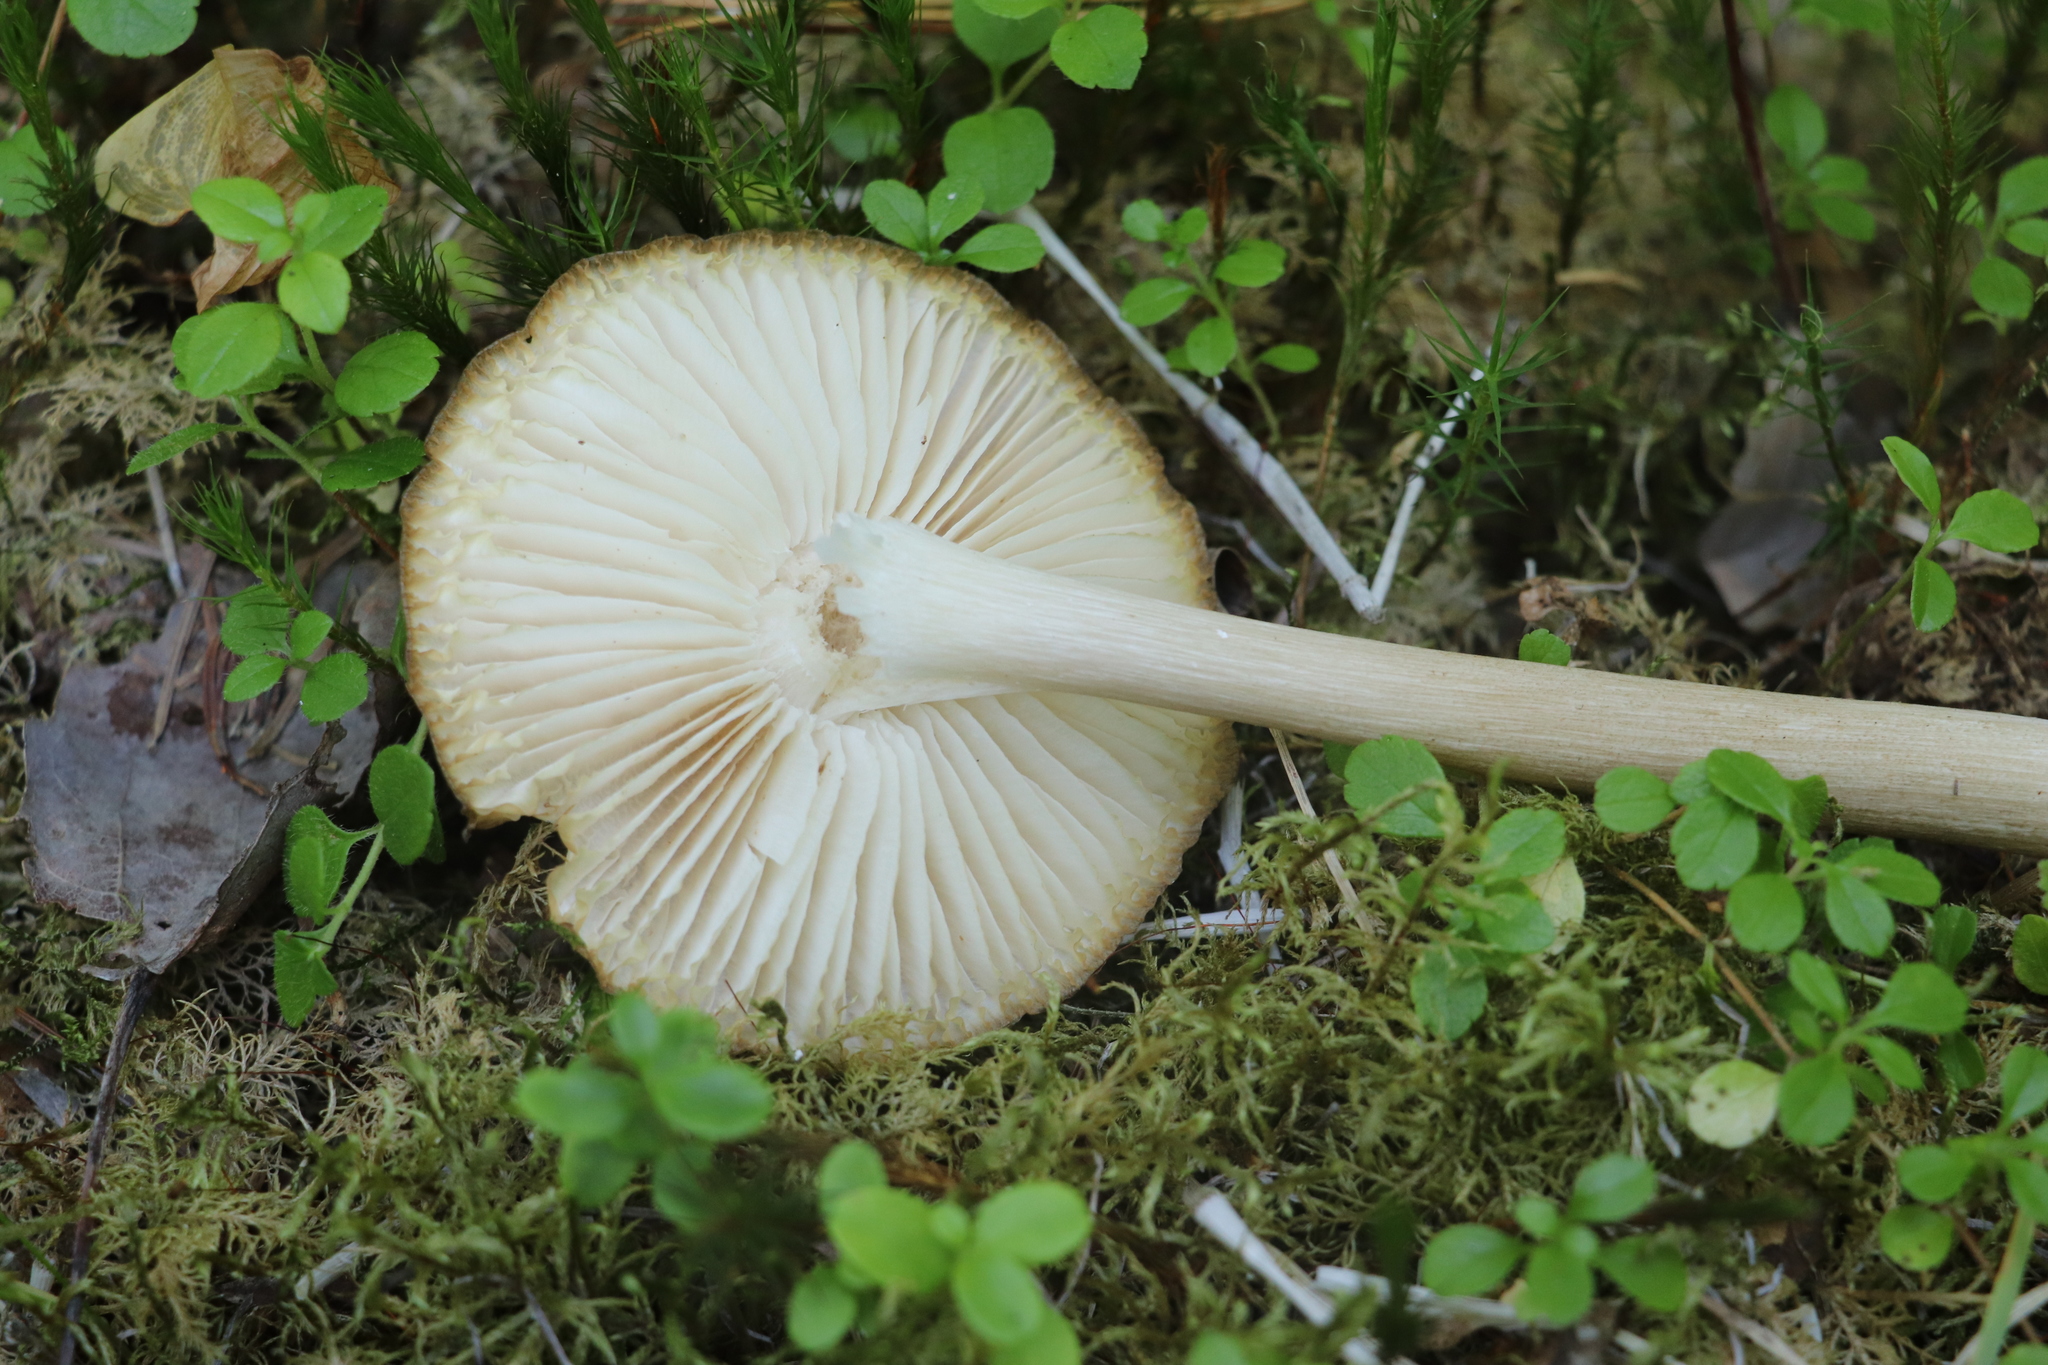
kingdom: Fungi
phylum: Basidiomycota
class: Agaricomycetes
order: Agaricales
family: Tricholomataceae
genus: Megacollybia
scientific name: Megacollybia platyphylla
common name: Whitelaced shank
